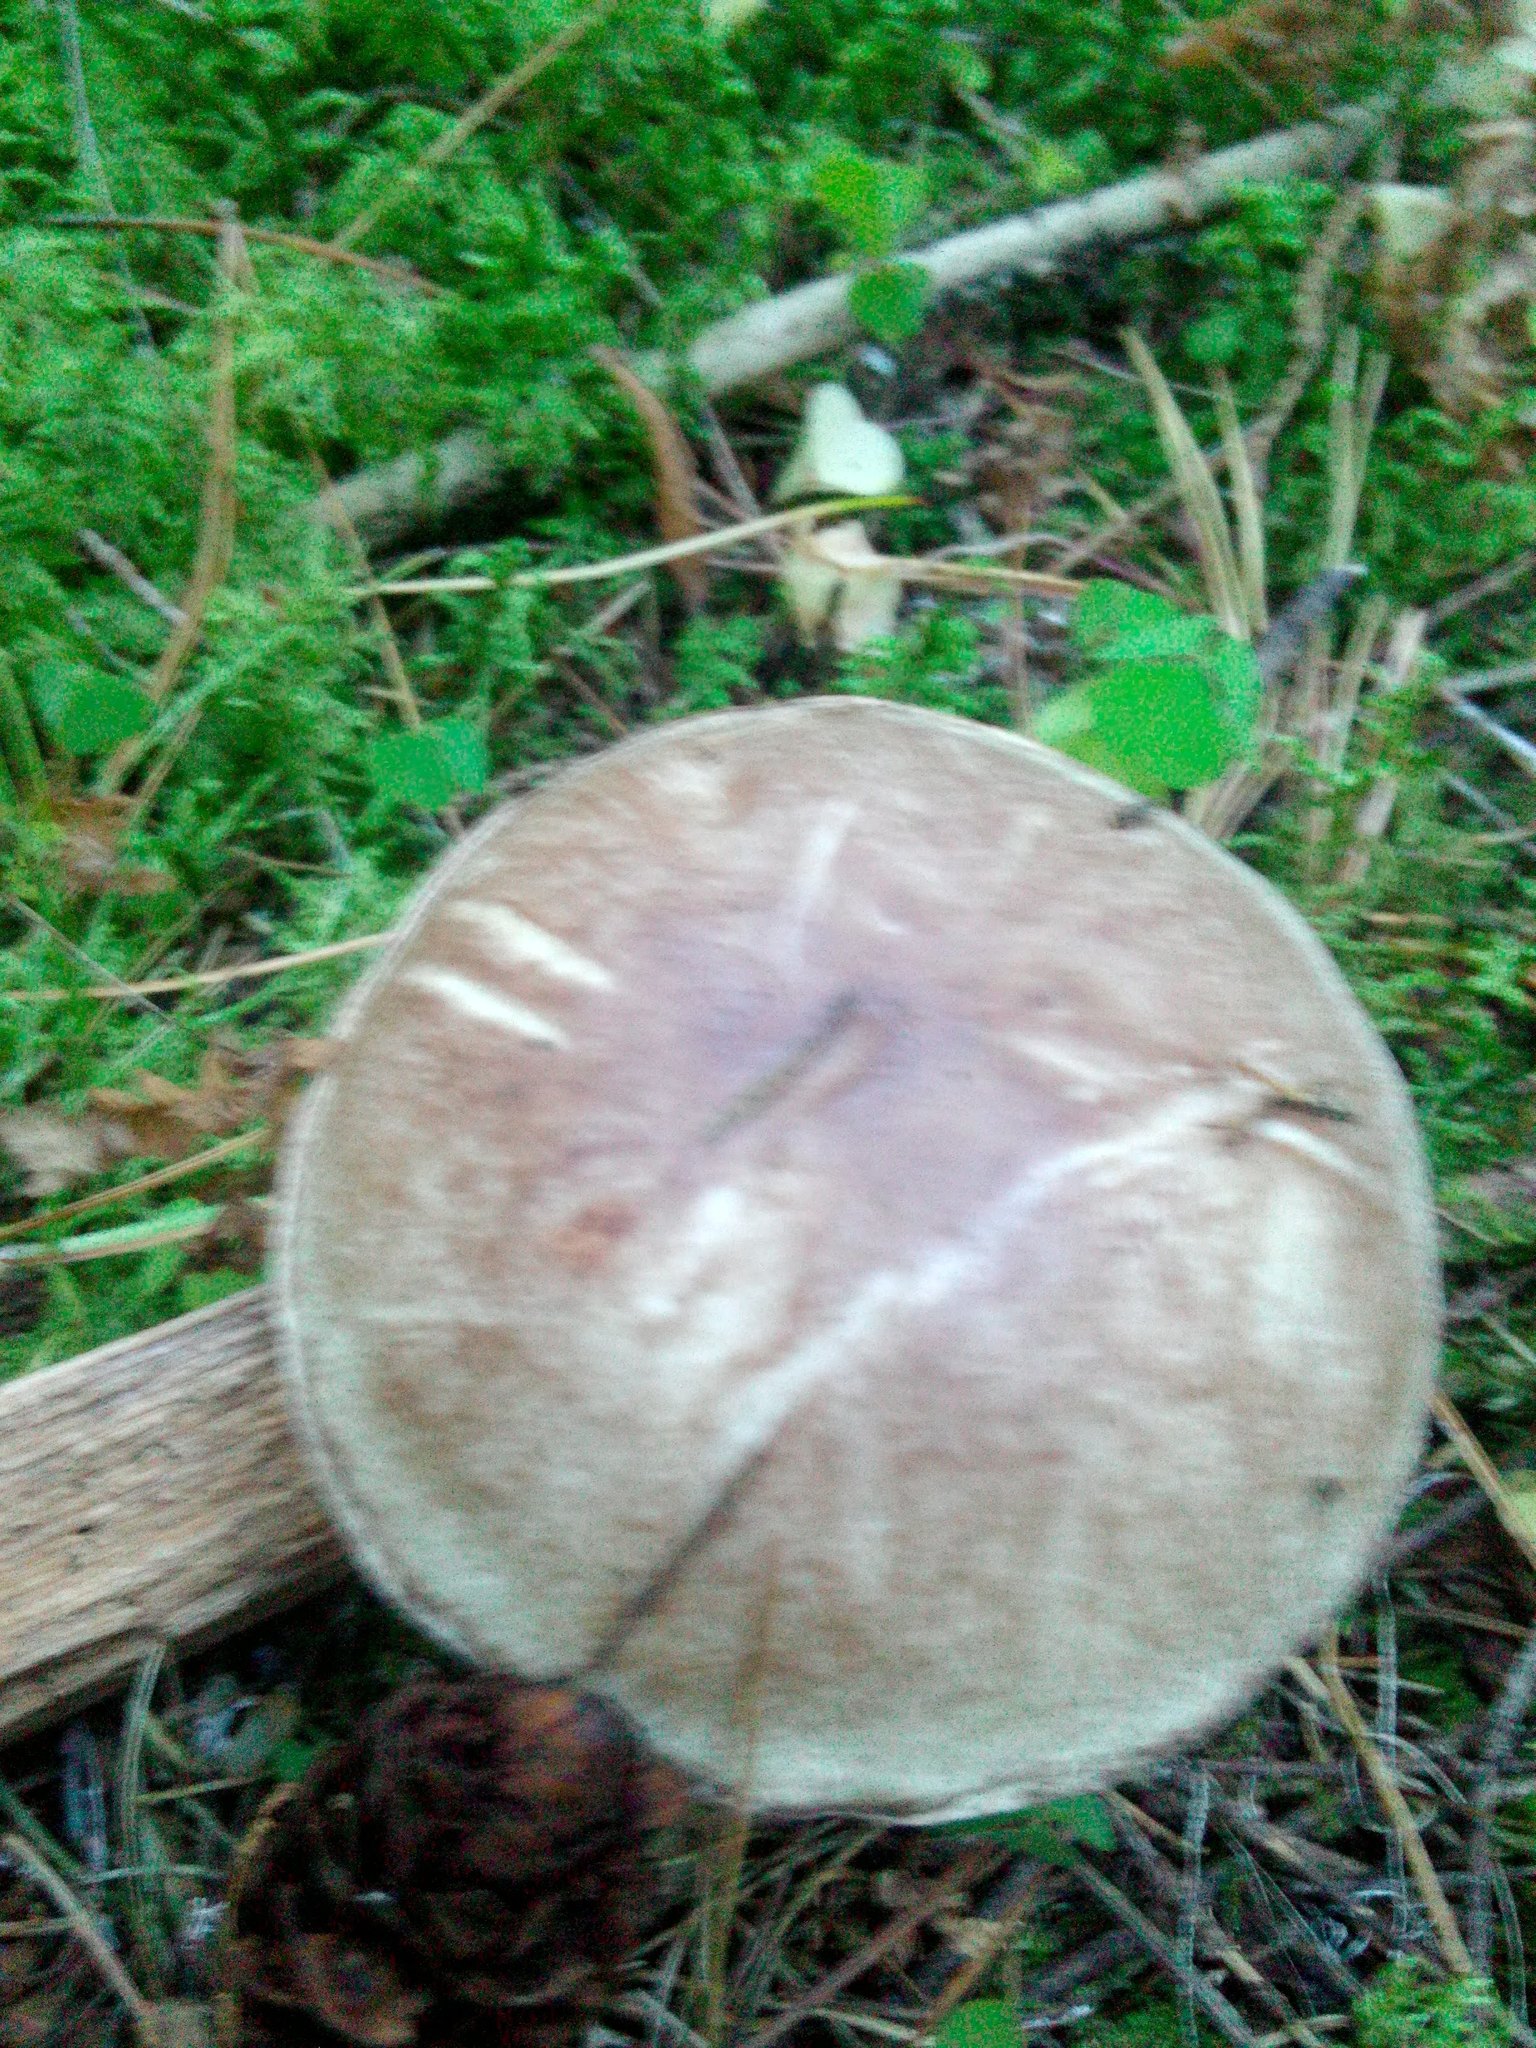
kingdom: Fungi
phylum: Basidiomycota
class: Agaricomycetes
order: Boletales
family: Suillaceae
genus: Suillus
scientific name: Suillus placidus
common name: Slippery white bolete
